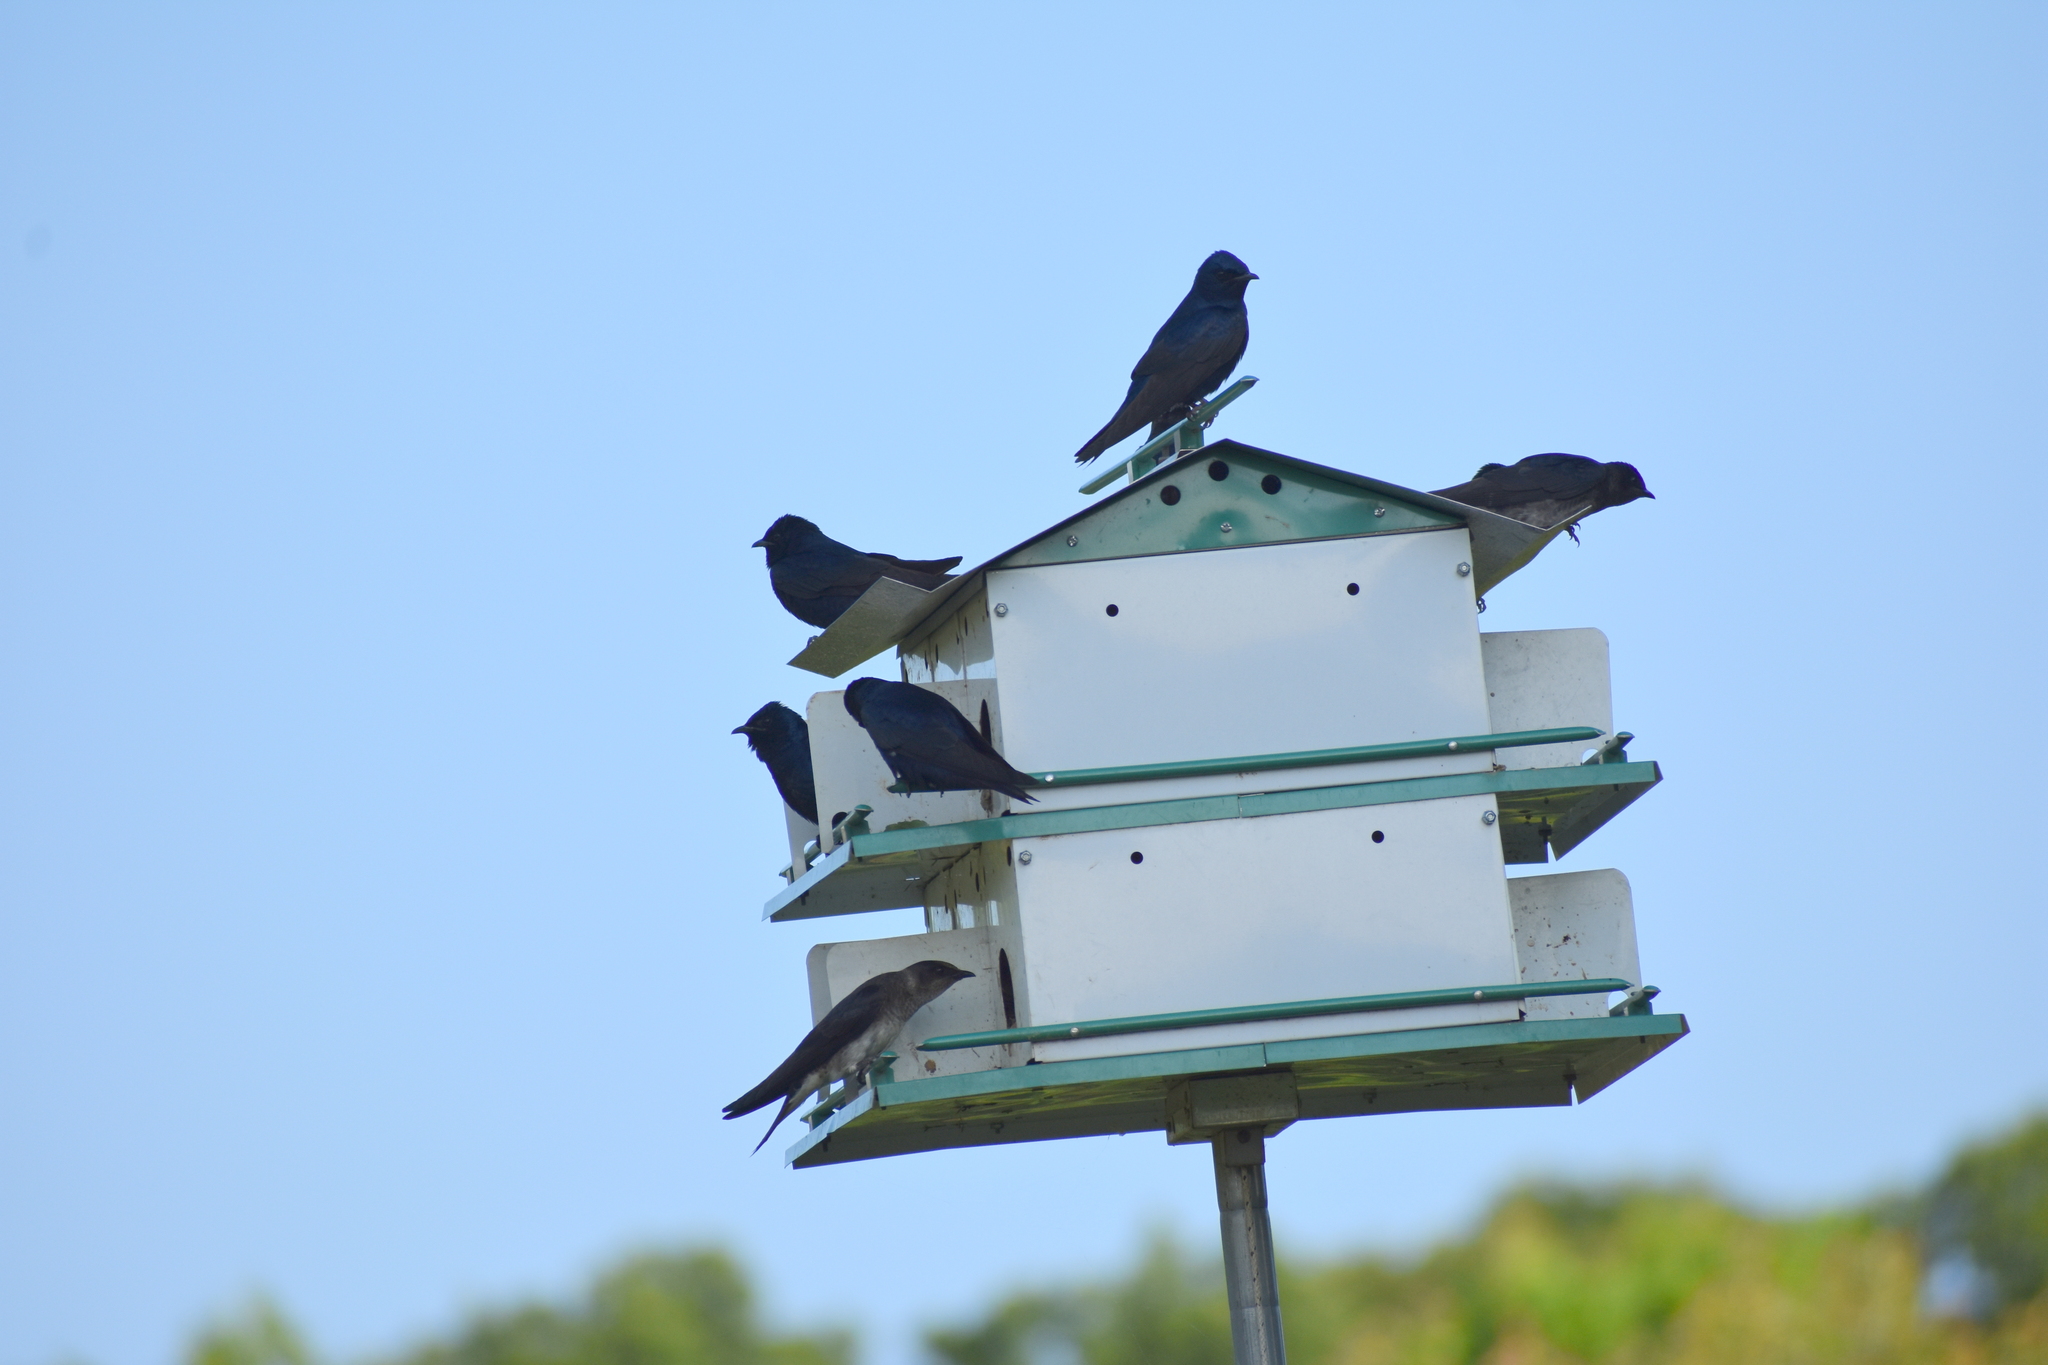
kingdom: Animalia
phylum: Chordata
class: Aves
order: Passeriformes
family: Hirundinidae
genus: Progne
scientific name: Progne subis
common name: Purple martin
